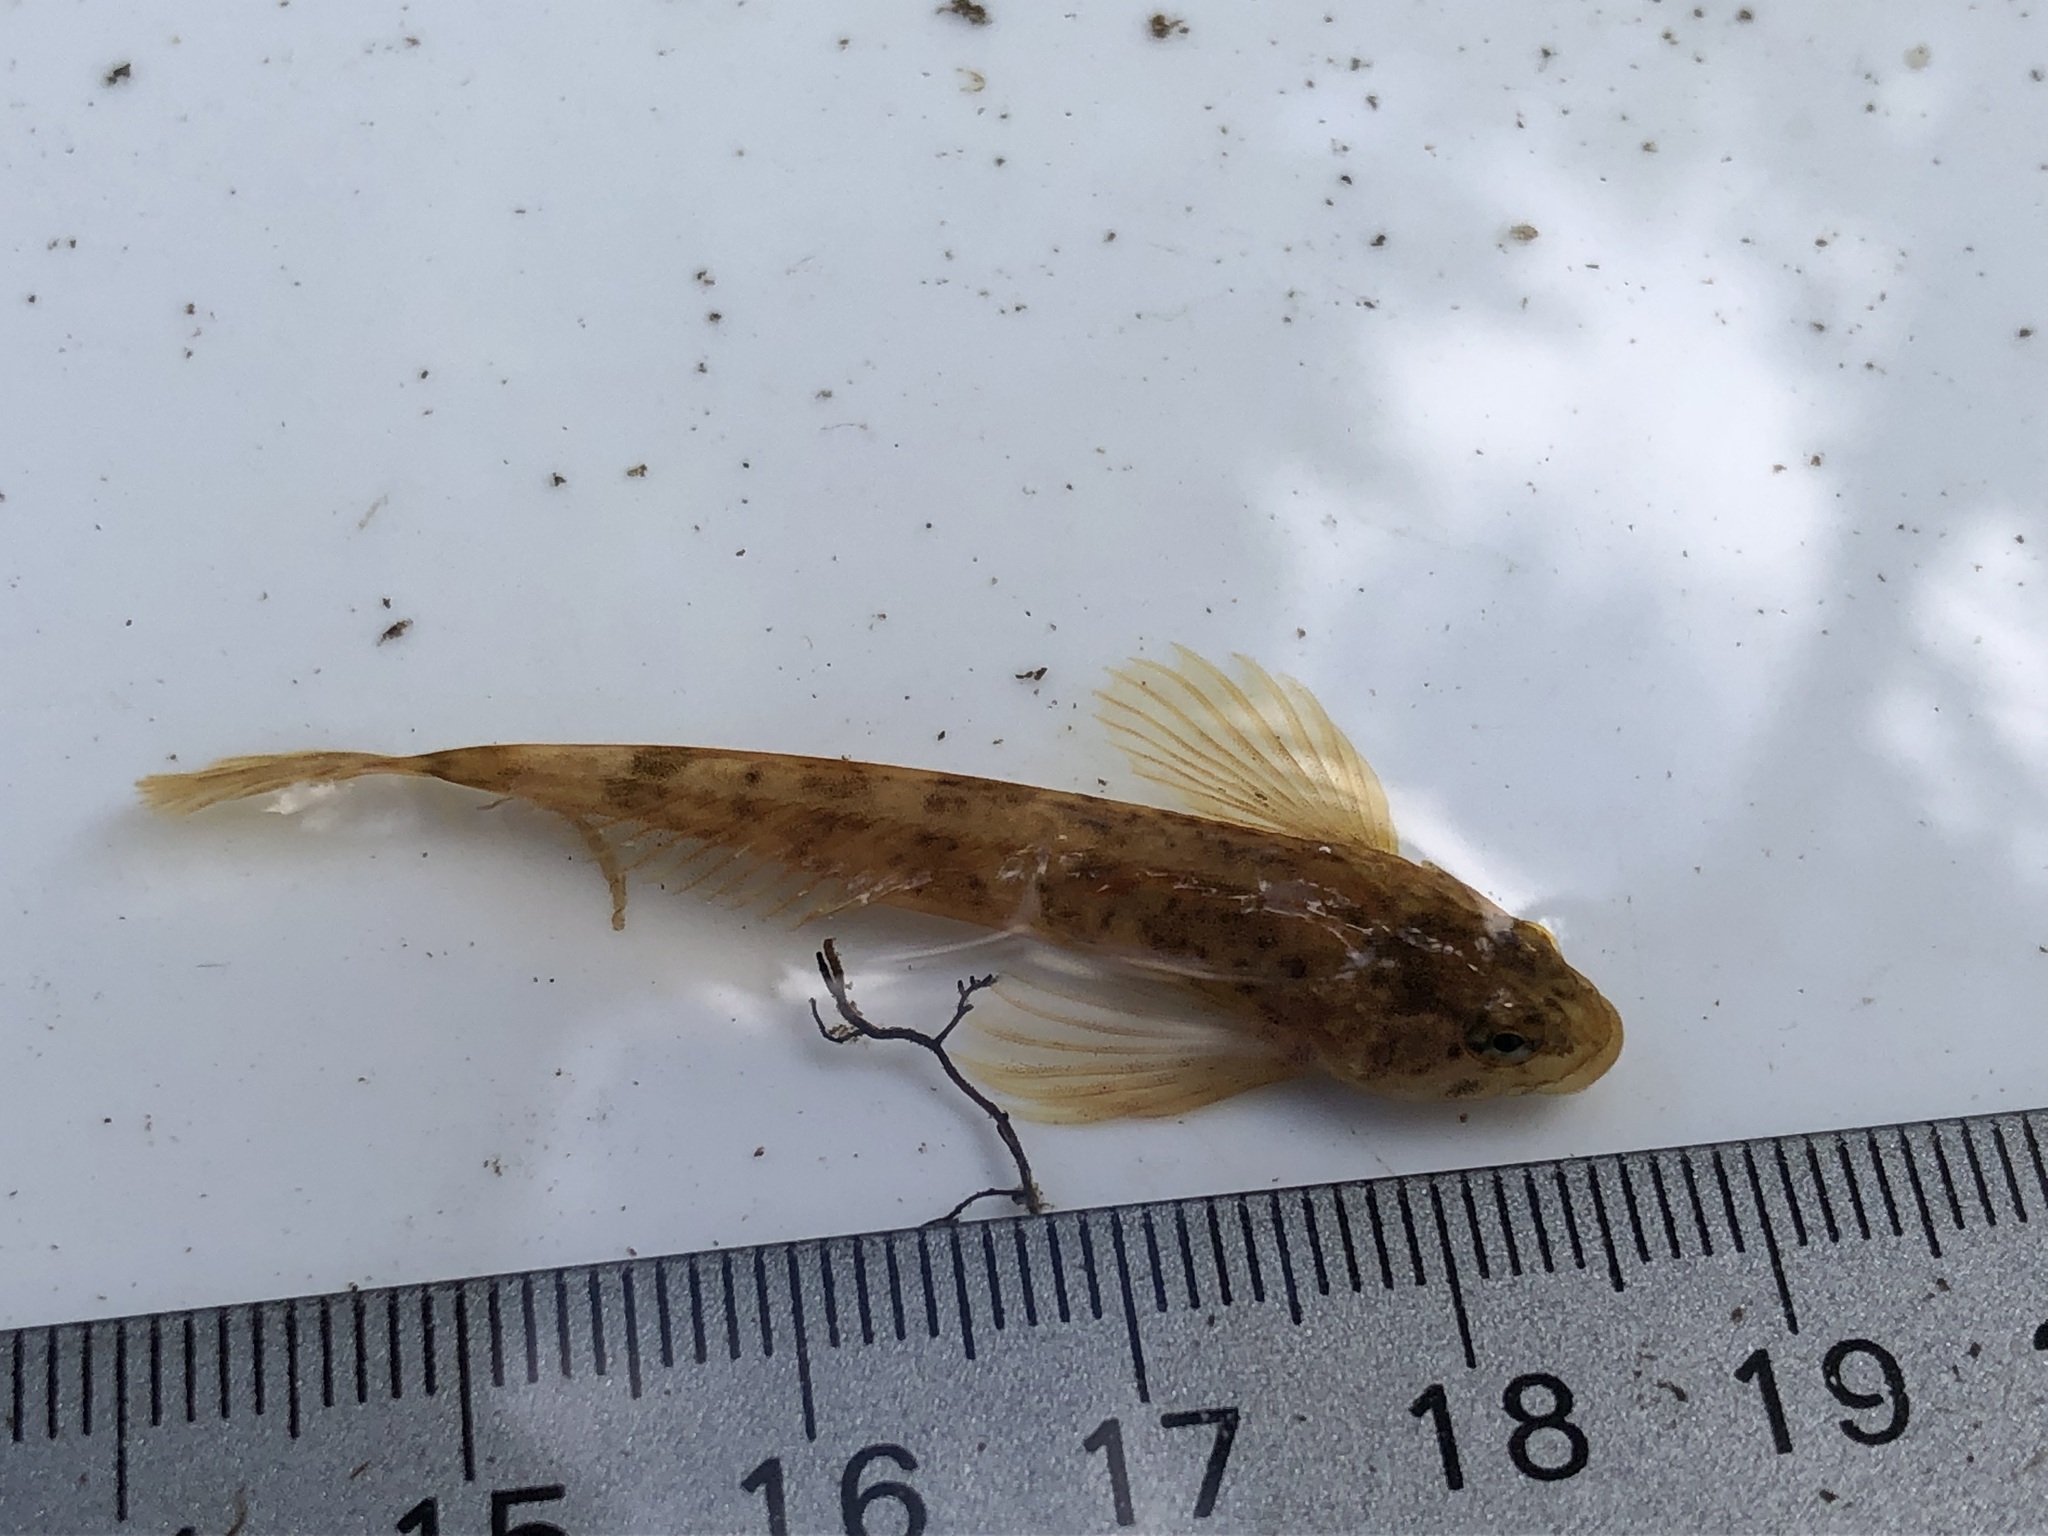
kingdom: Animalia
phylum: Chordata
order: Scorpaeniformes
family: Cottidae
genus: Cottus
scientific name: Cottus cognatus
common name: Slimy sculpin
